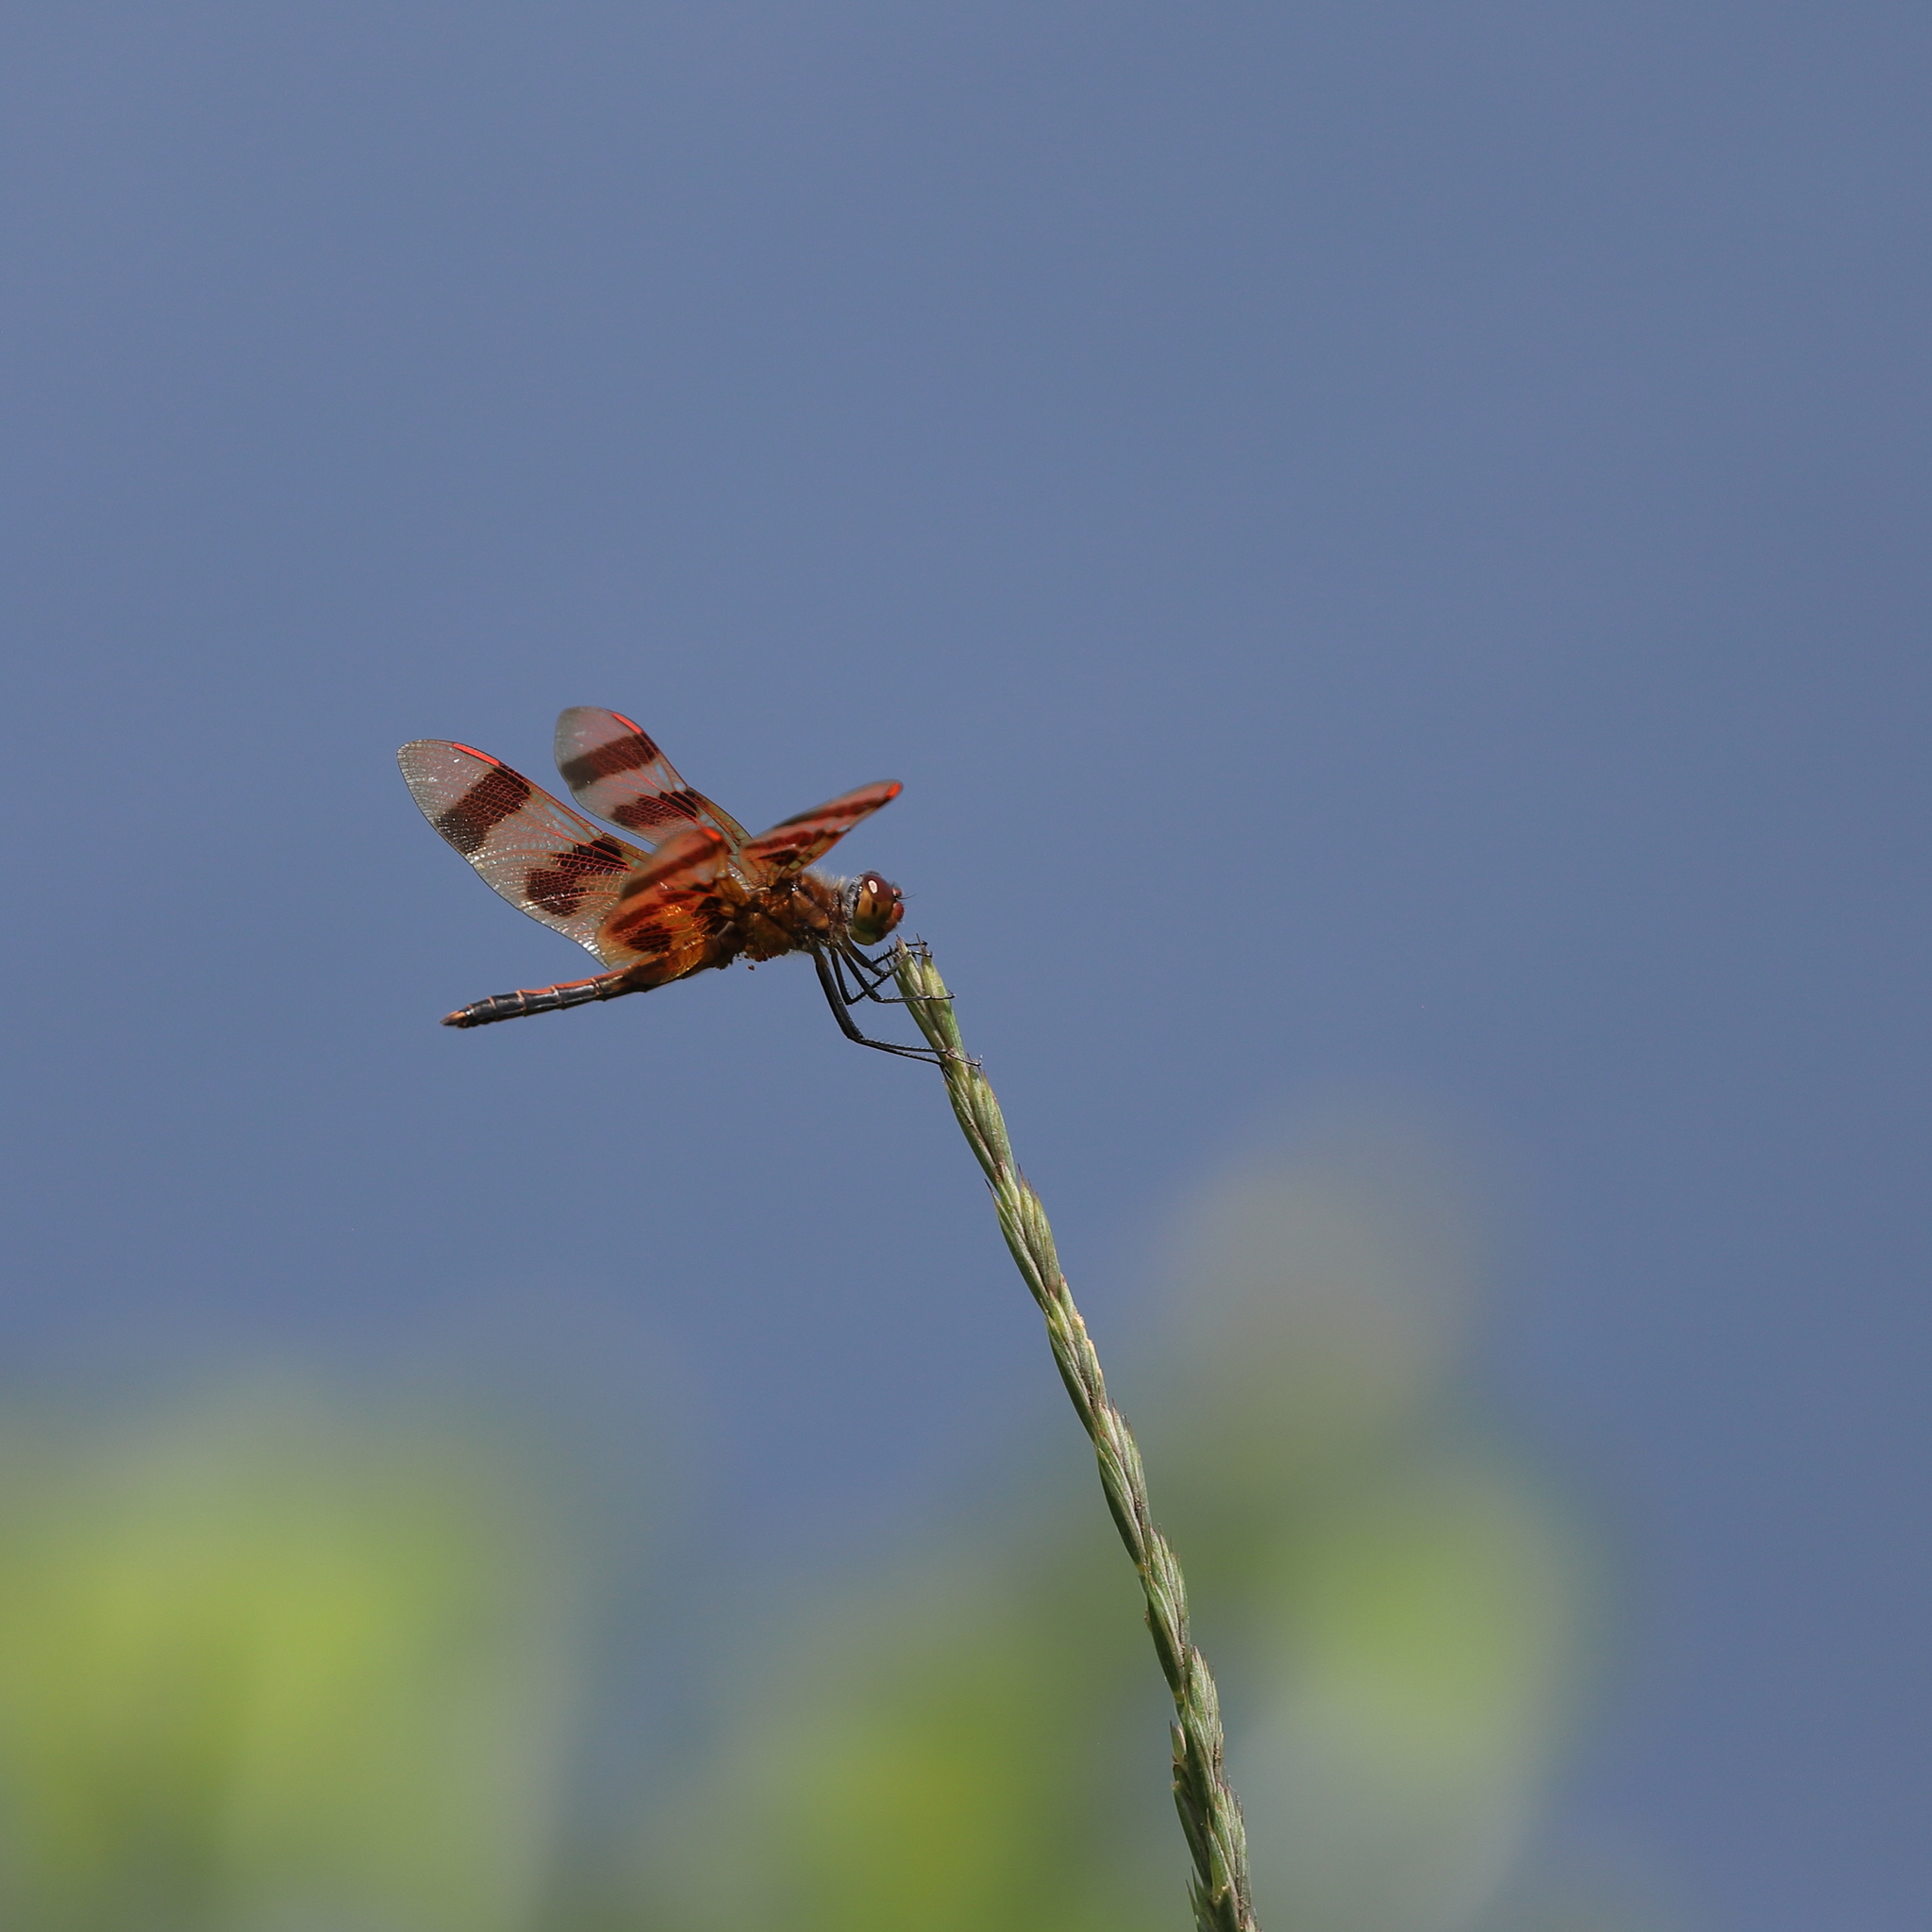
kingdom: Animalia
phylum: Arthropoda
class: Insecta
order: Odonata
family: Libellulidae
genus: Celithemis
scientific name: Celithemis eponina
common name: Halloween pennant
